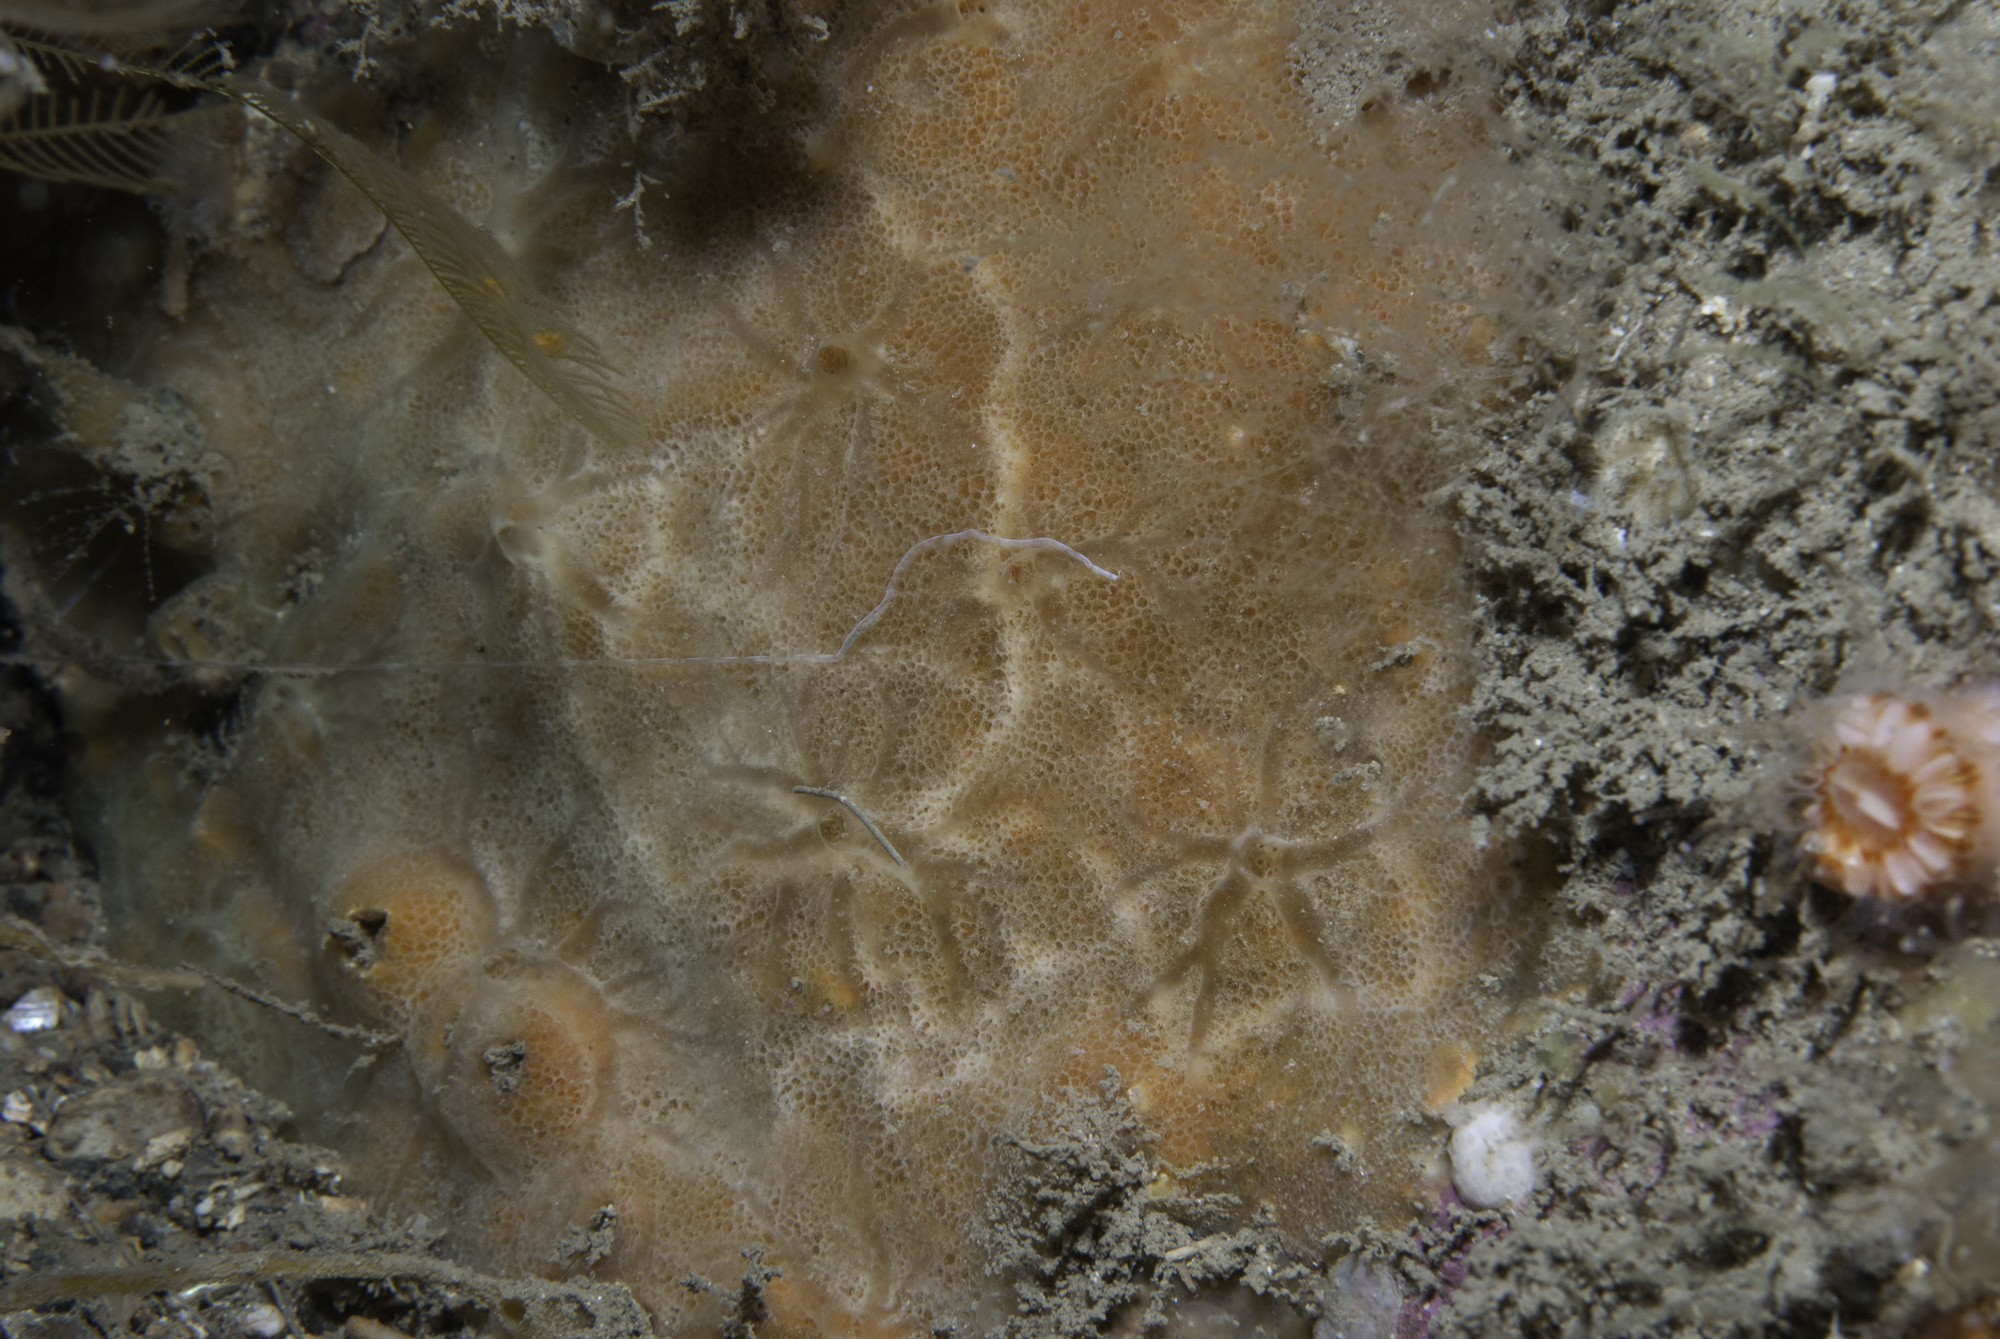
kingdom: Animalia
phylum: Porifera
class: Demospongiae
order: Poecilosclerida
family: Hymedesmiidae
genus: Hymedesmia
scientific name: Hymedesmia peachii
